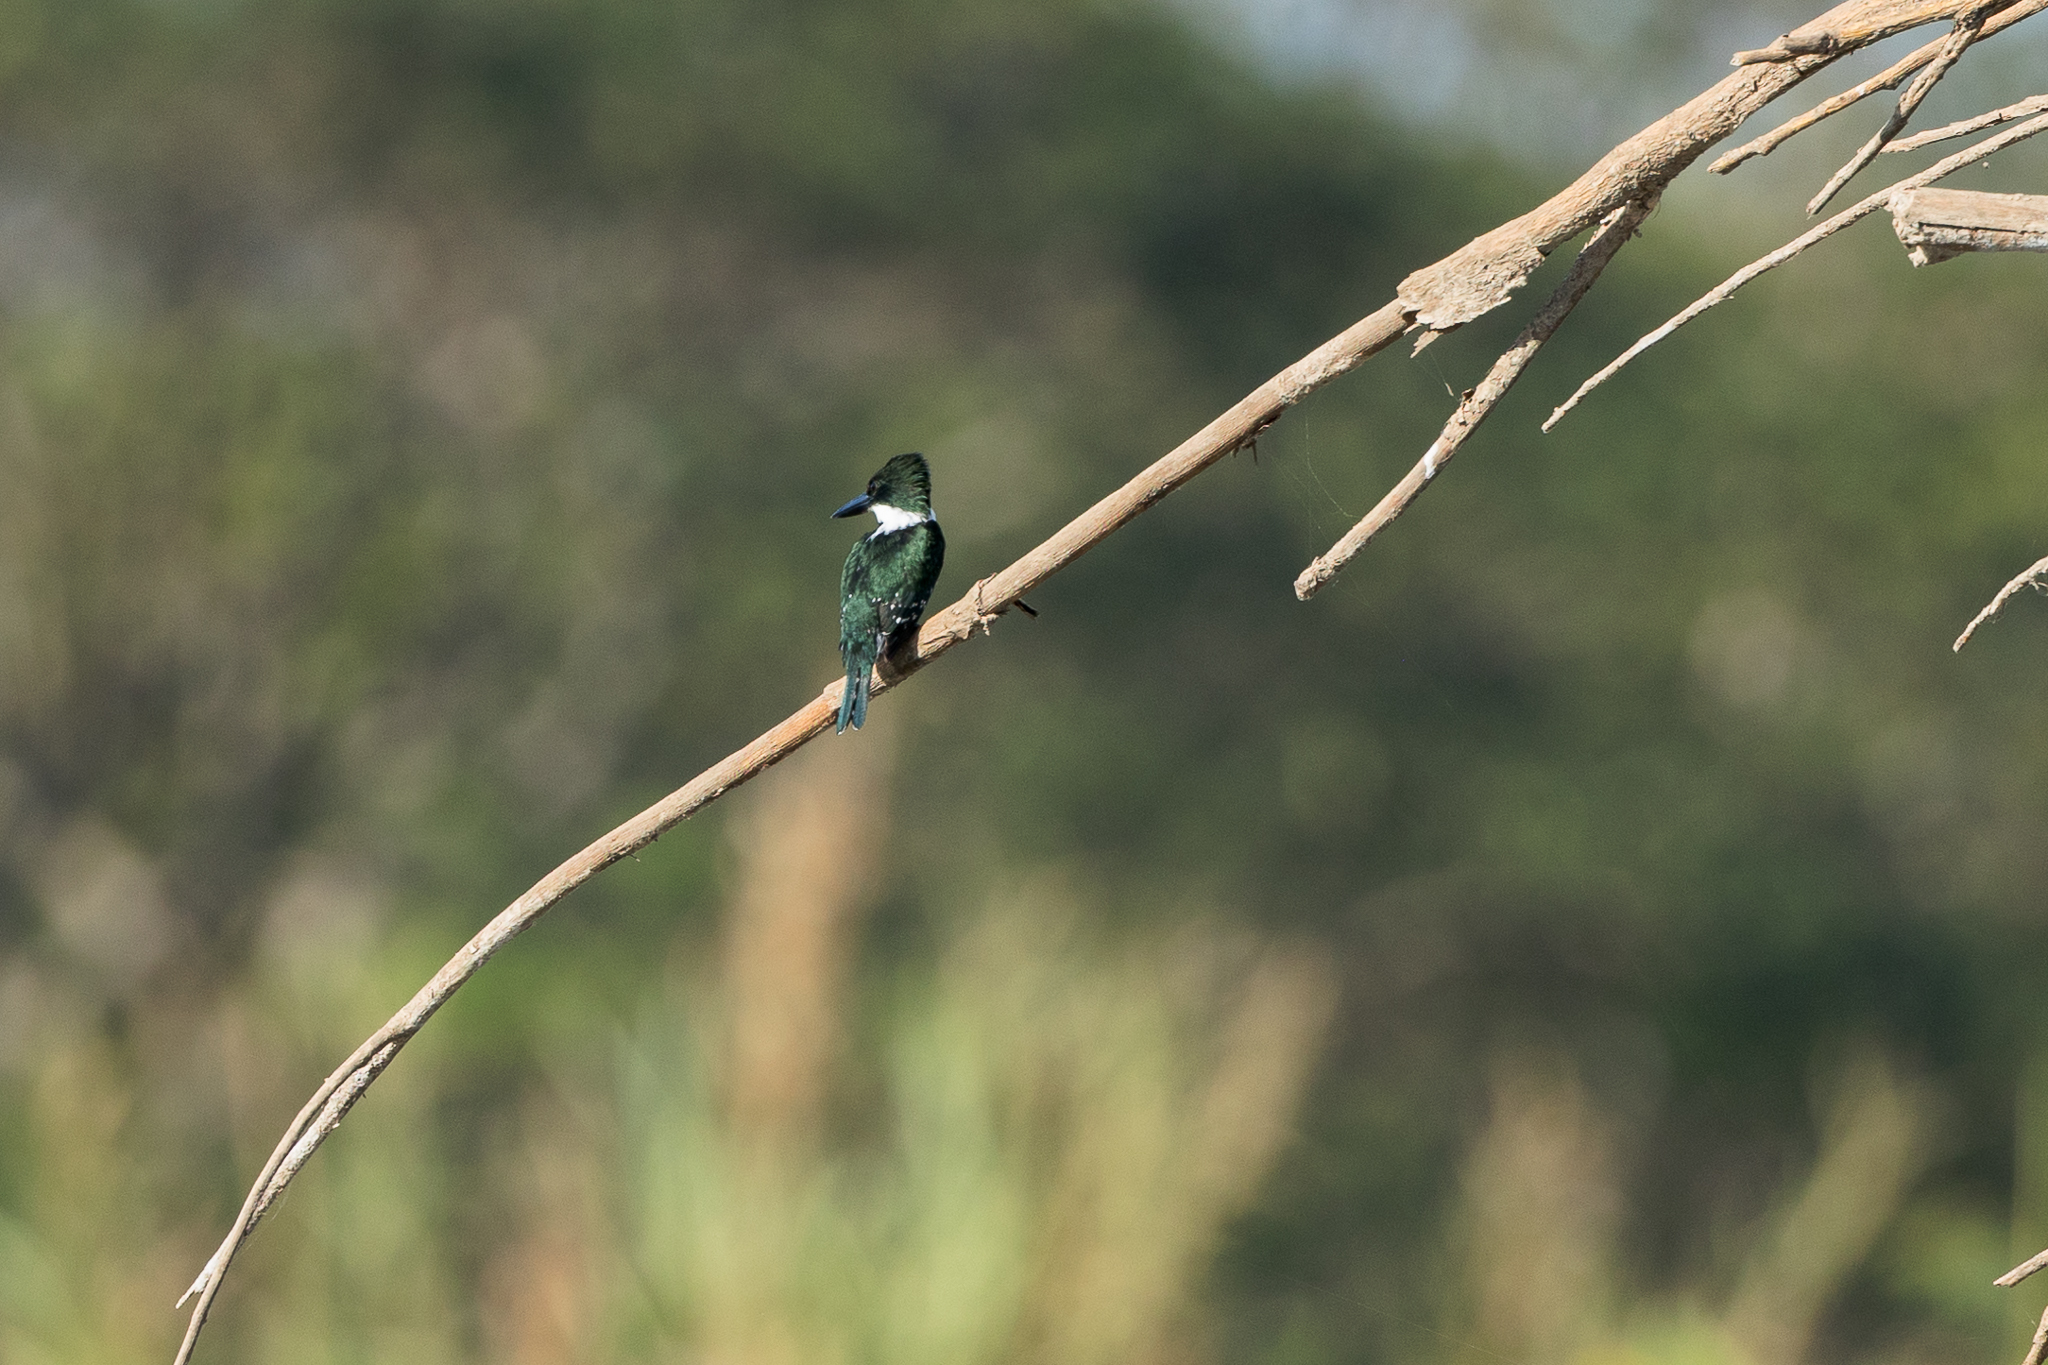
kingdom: Animalia
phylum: Chordata
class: Aves
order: Coraciiformes
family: Alcedinidae
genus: Chloroceryle
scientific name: Chloroceryle americana
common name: Green kingfisher
